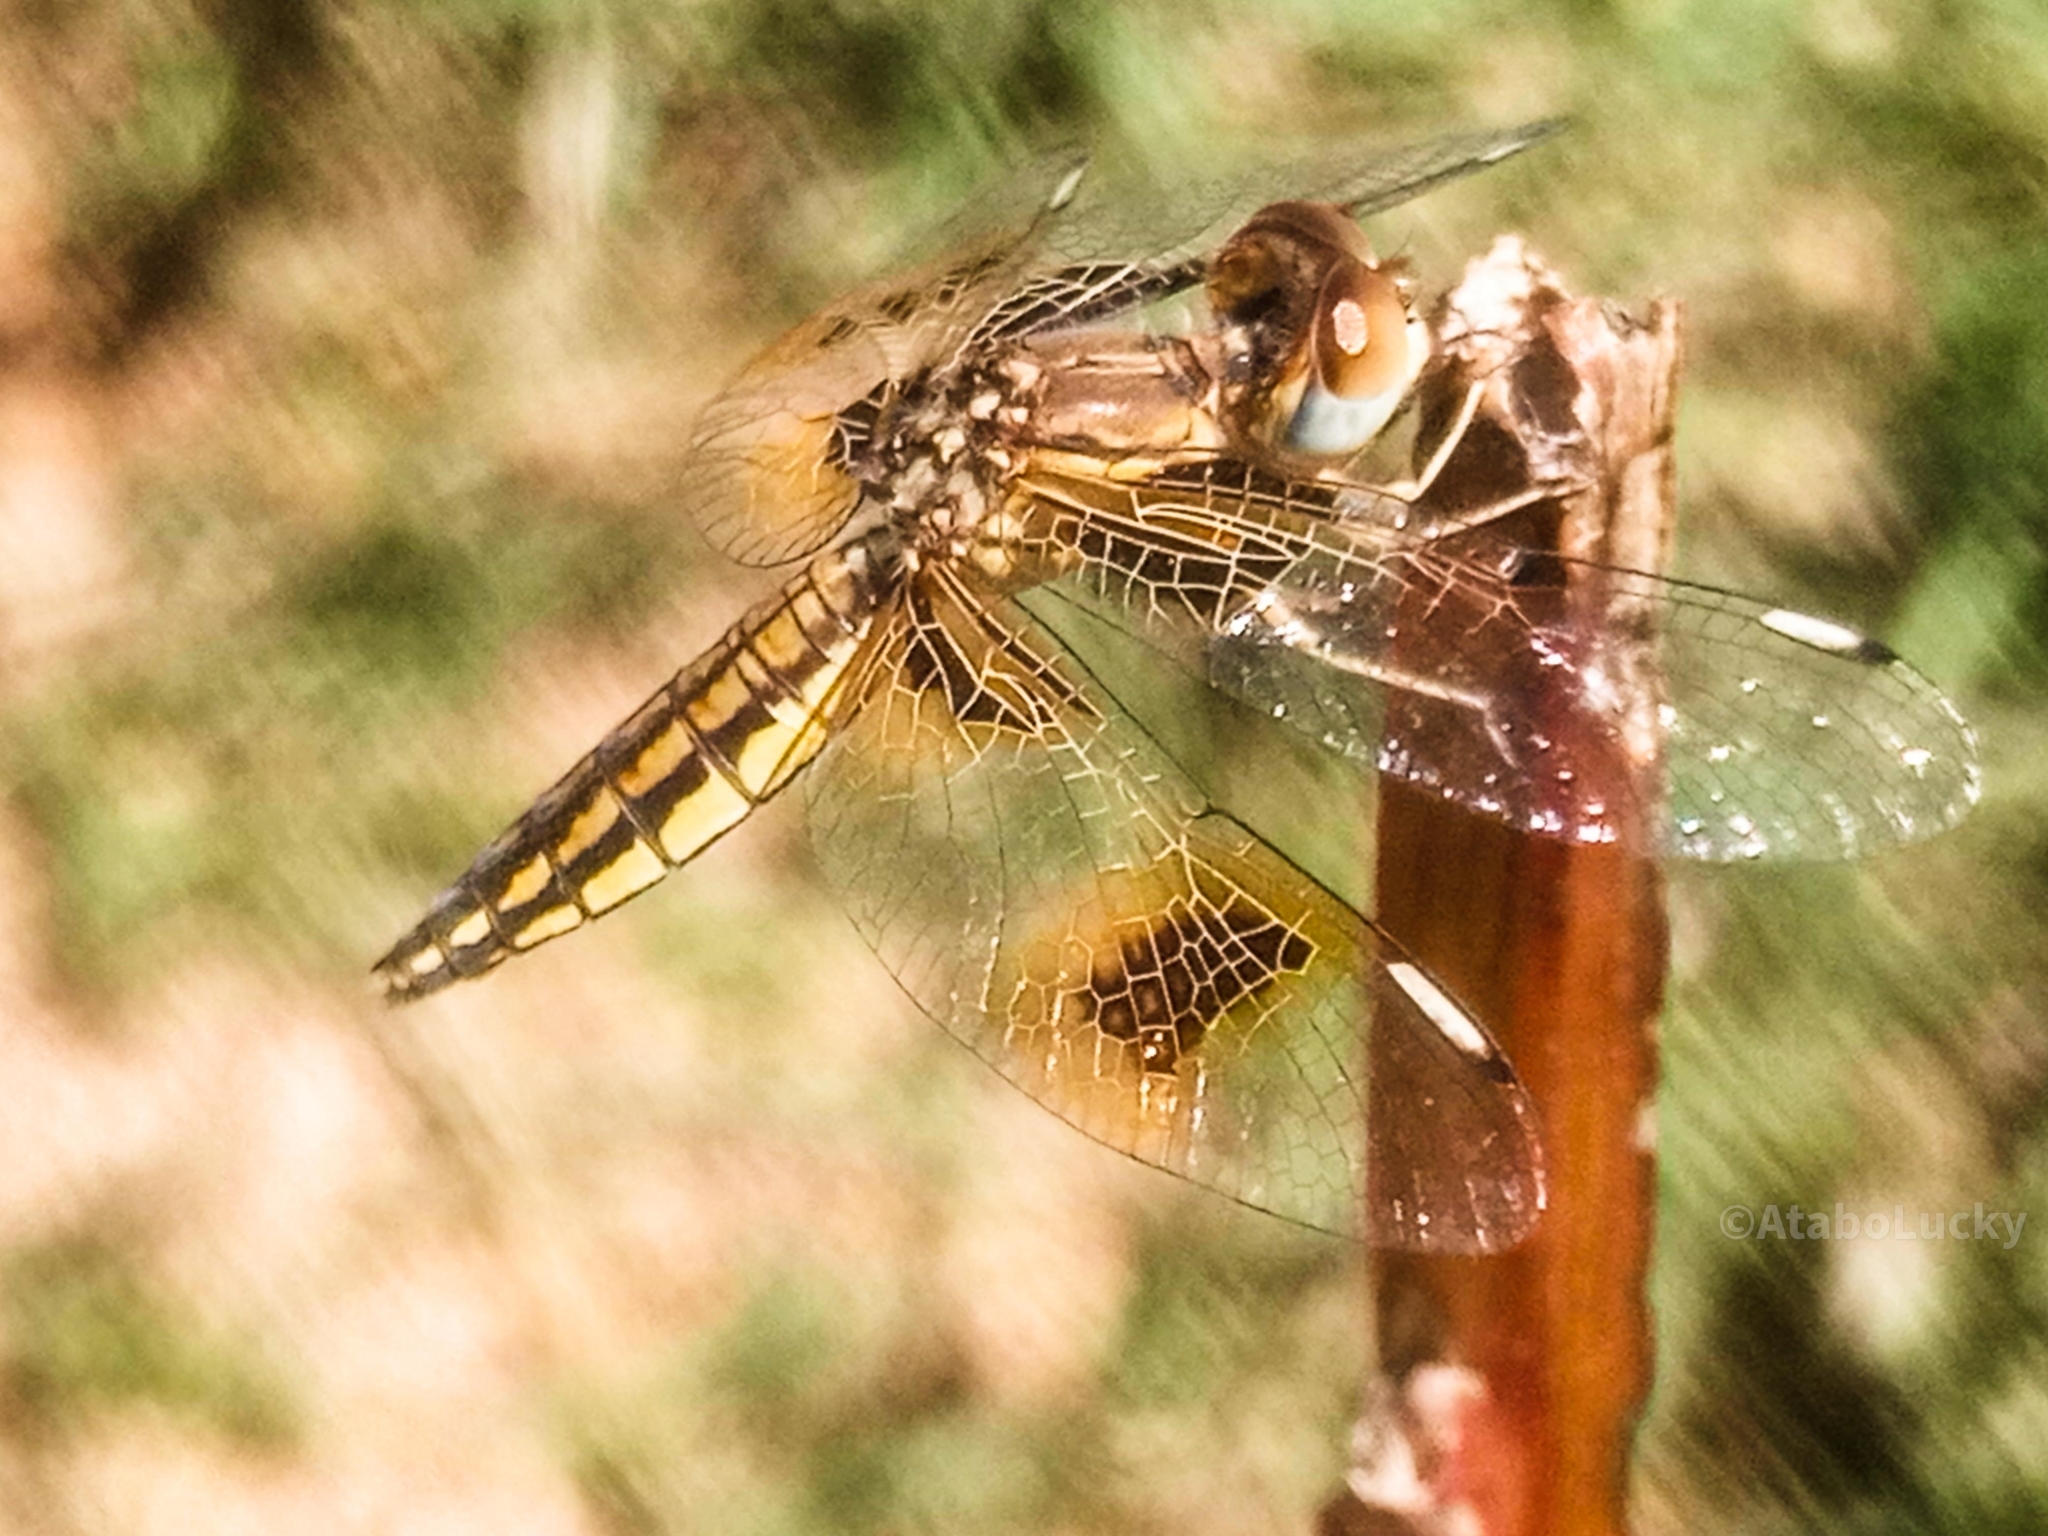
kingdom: Animalia
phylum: Arthropoda
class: Insecta
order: Odonata
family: Libellulidae
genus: Palpopleura
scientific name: Palpopleura jucunda
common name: Yellow-veined widow
